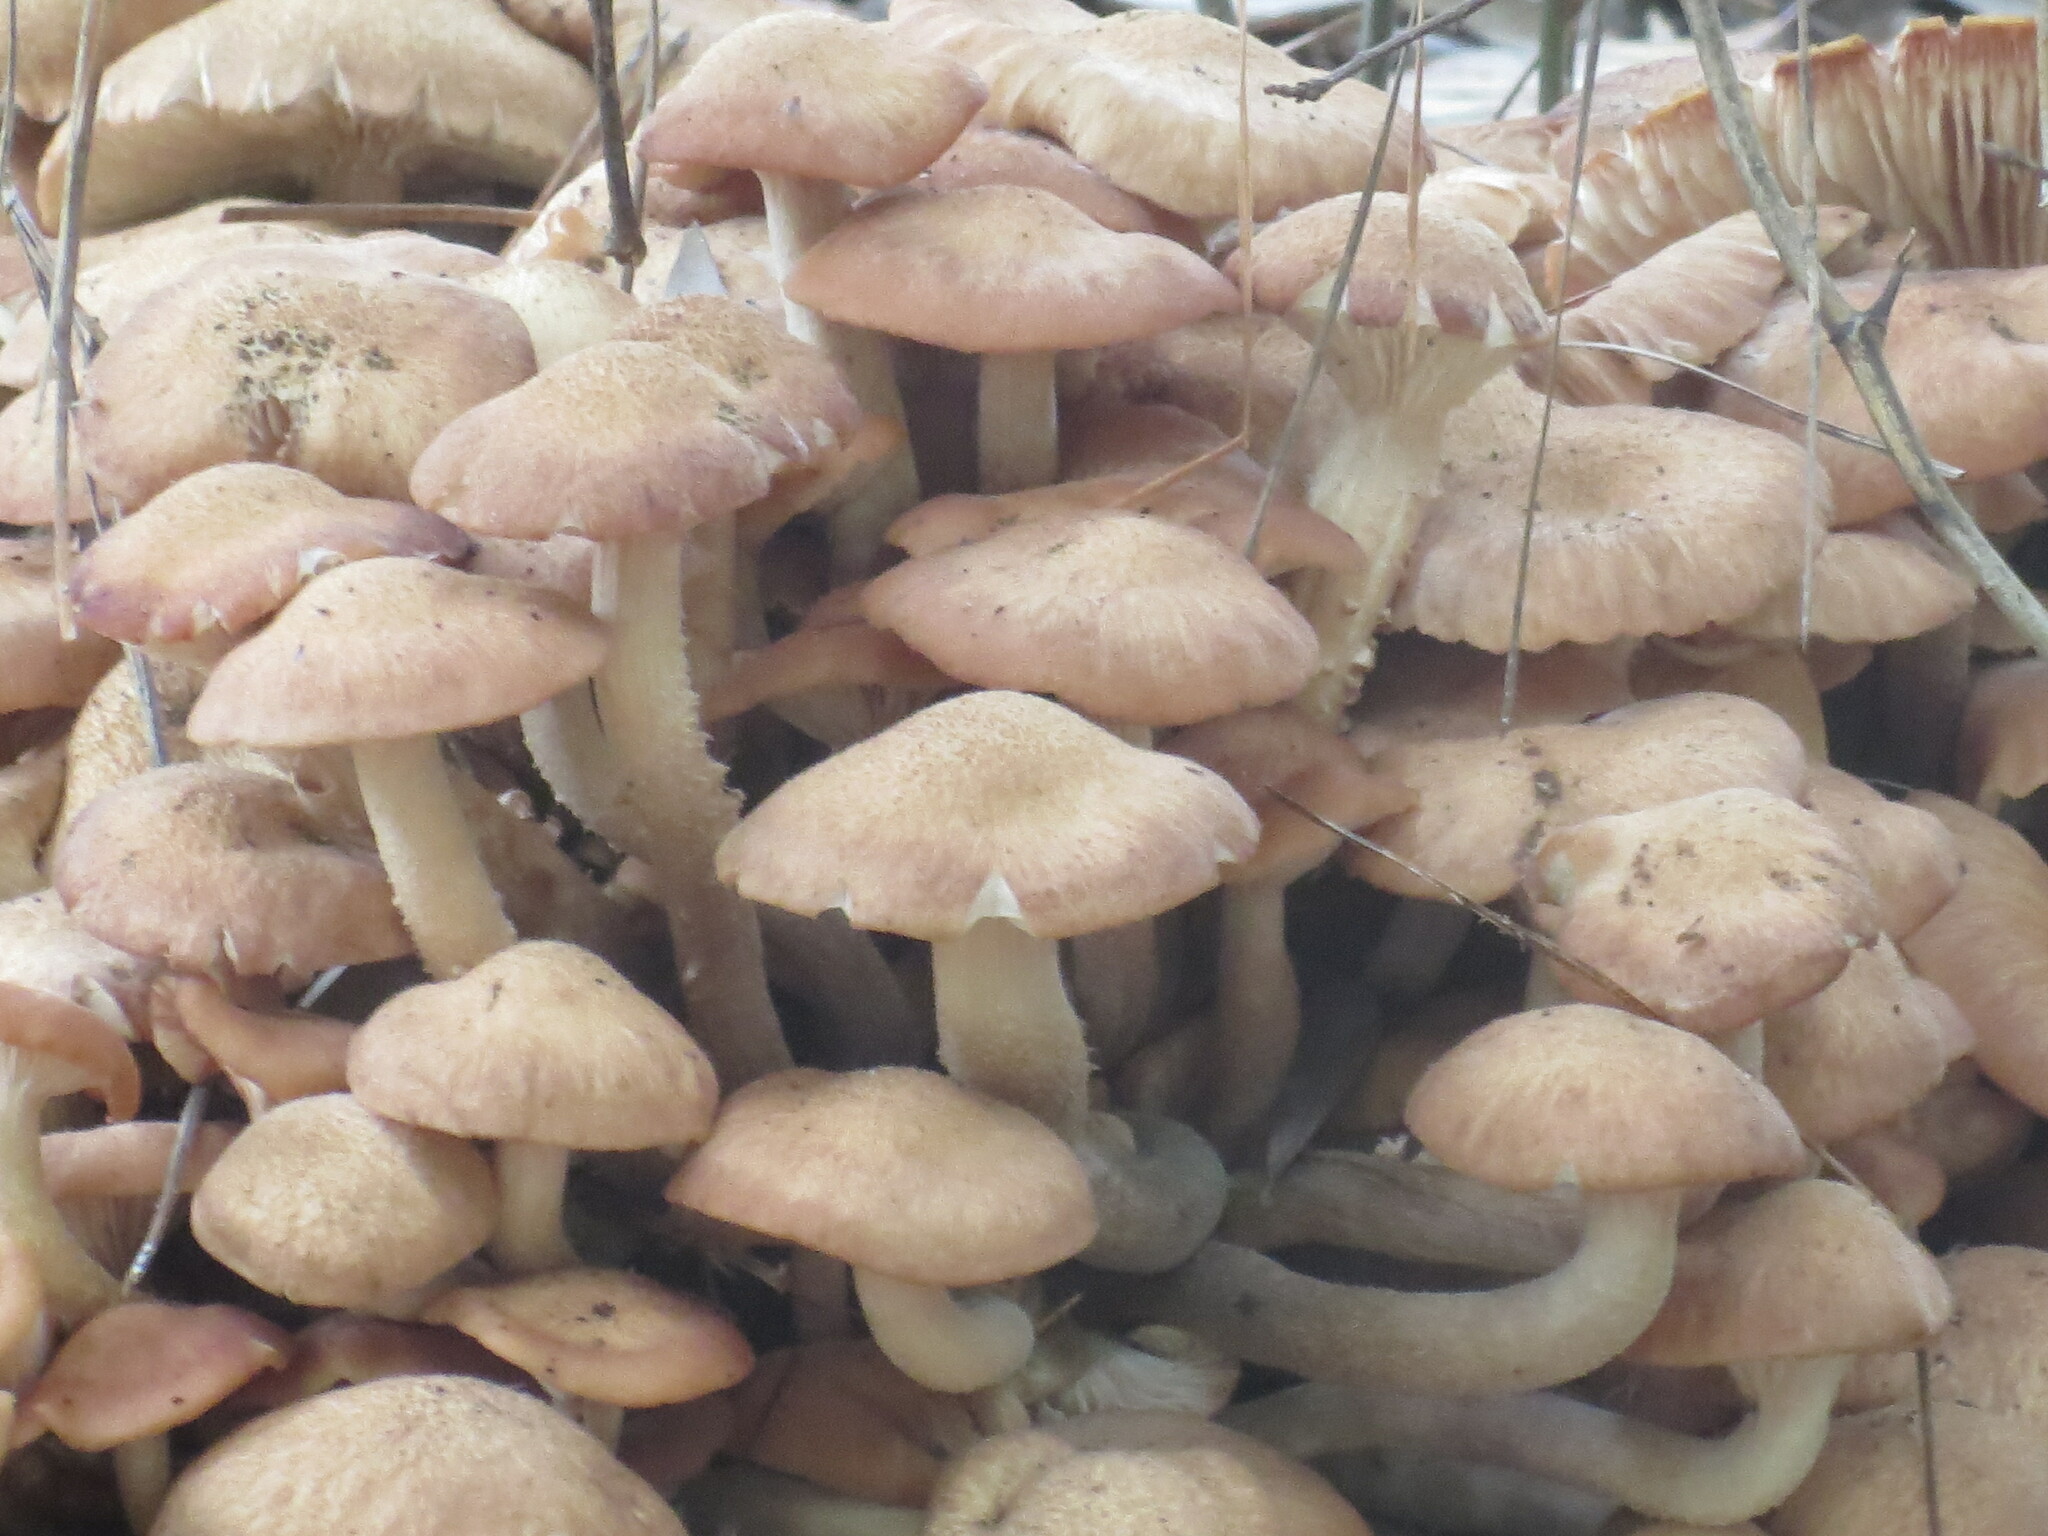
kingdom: Fungi
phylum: Basidiomycota
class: Agaricomycetes
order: Agaricales
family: Physalacriaceae
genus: Desarmillaria
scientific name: Desarmillaria caespitosa
